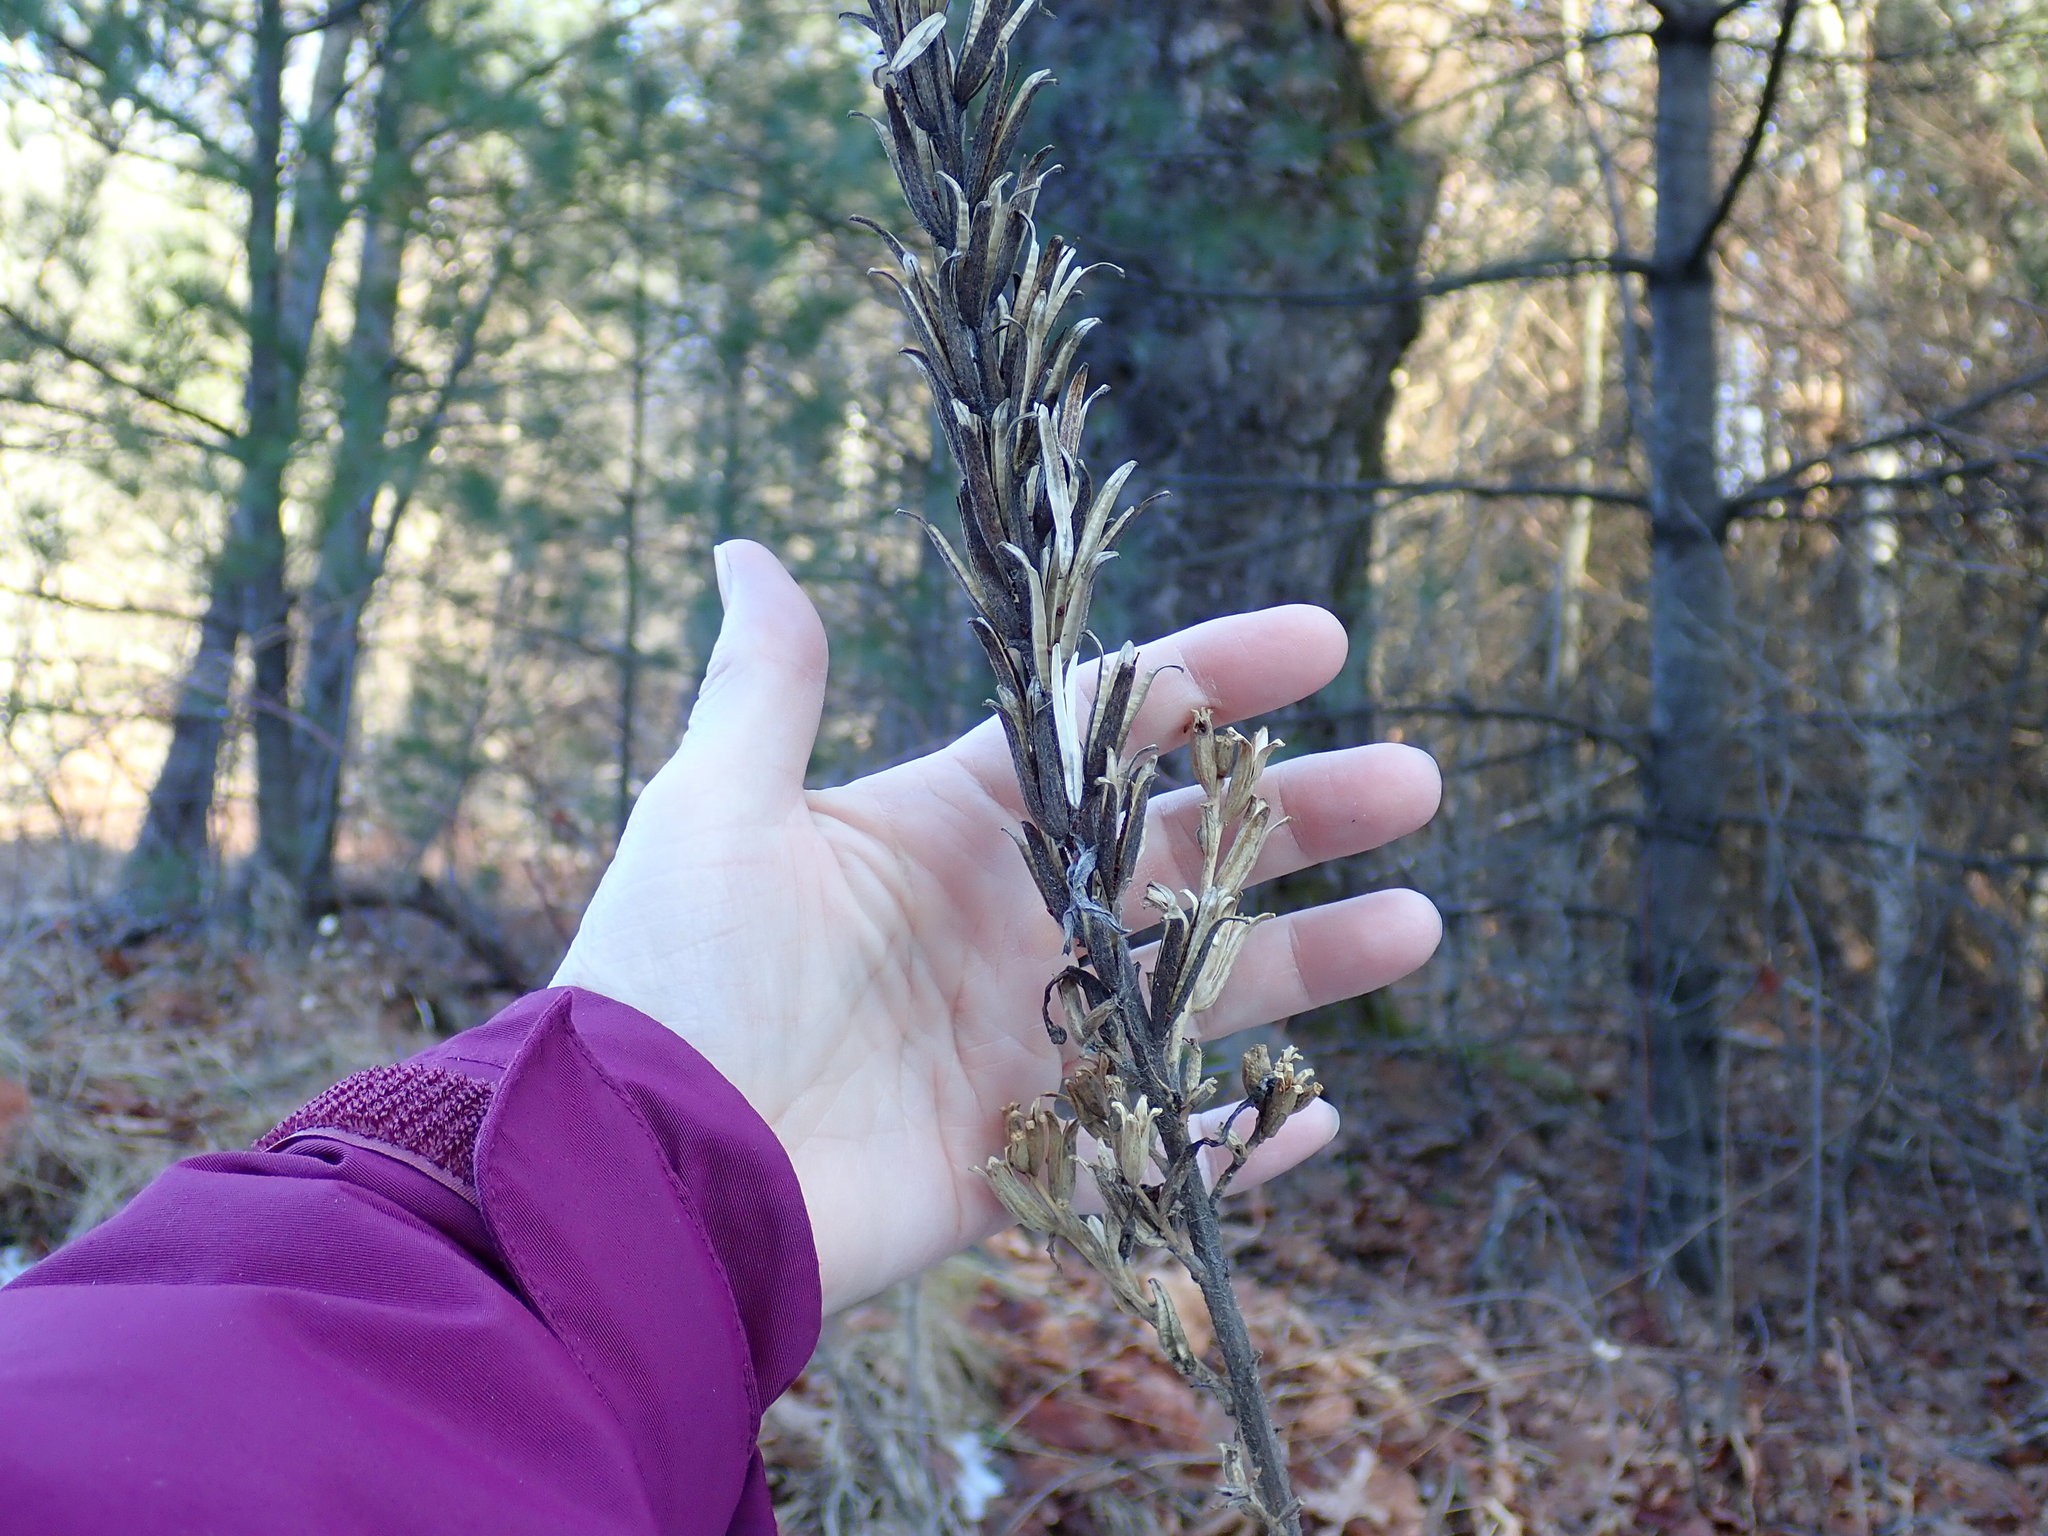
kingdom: Plantae
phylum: Tracheophyta
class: Magnoliopsida
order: Myrtales
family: Onagraceae
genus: Oenothera
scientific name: Oenothera biennis
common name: Common evening-primrose
